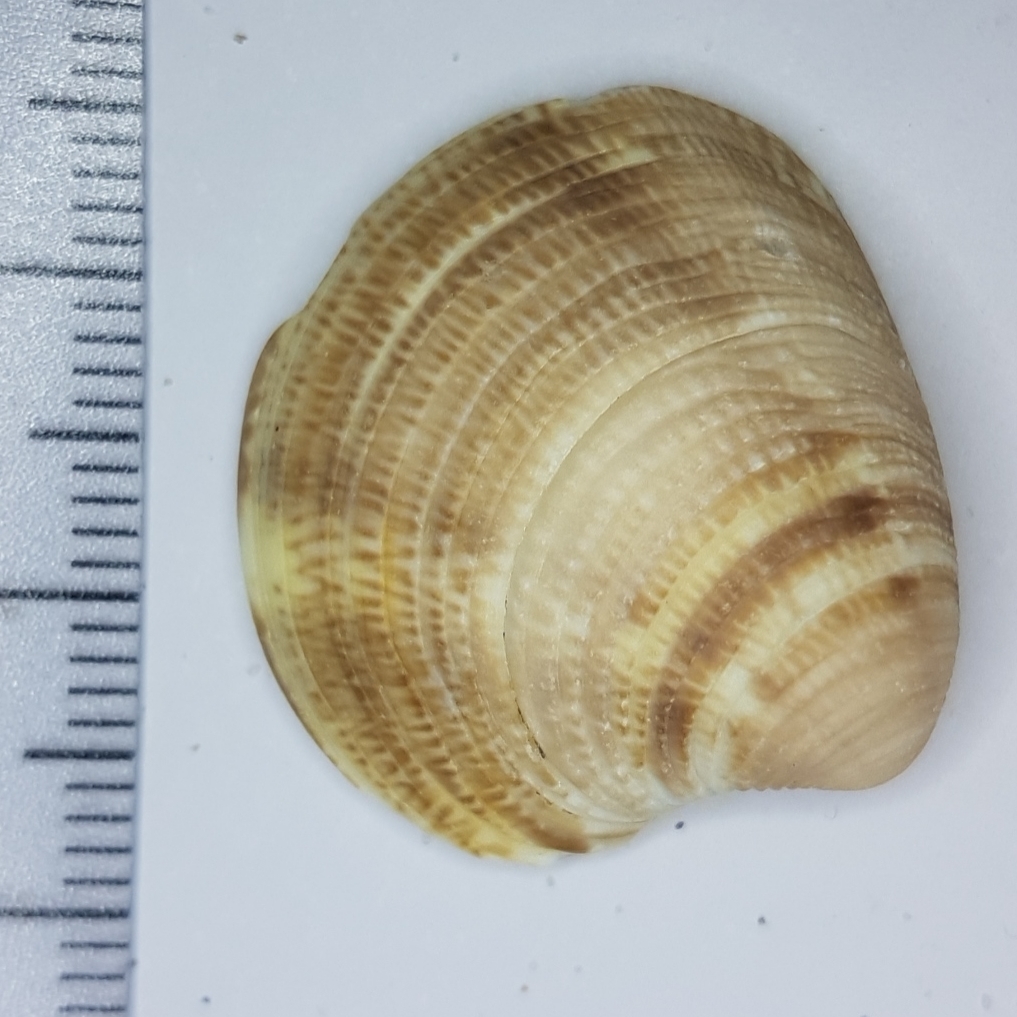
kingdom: Animalia
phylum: Mollusca
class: Bivalvia
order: Venerida
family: Veneridae
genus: Chamelea
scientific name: Chamelea gallina
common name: Chicken venus
